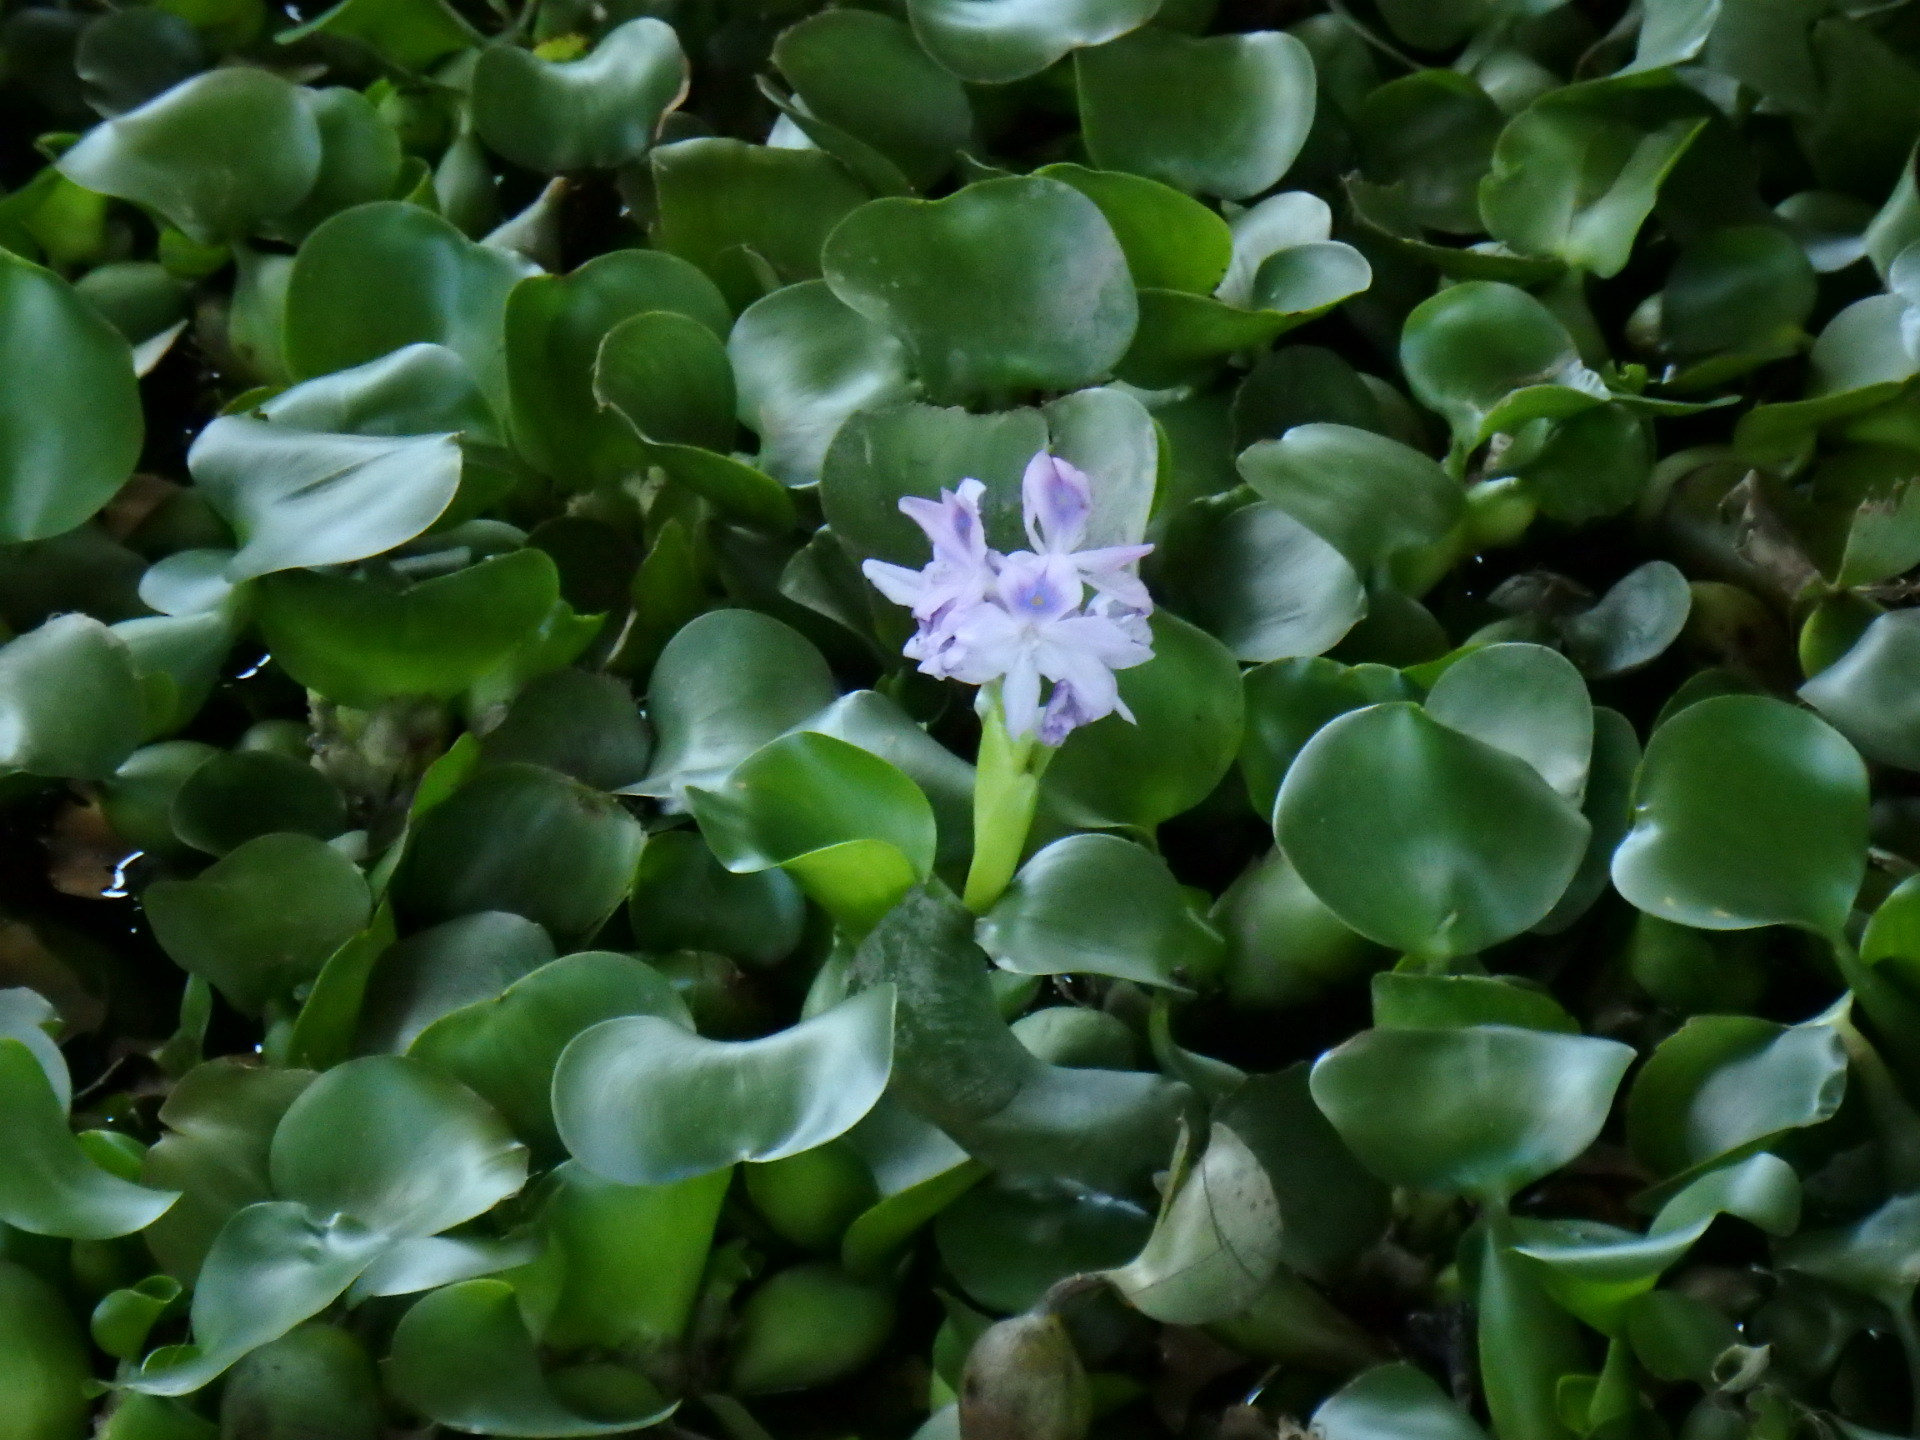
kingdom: Plantae
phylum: Tracheophyta
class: Liliopsida
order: Commelinales
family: Pontederiaceae
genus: Pontederia
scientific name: Pontederia crassipes
